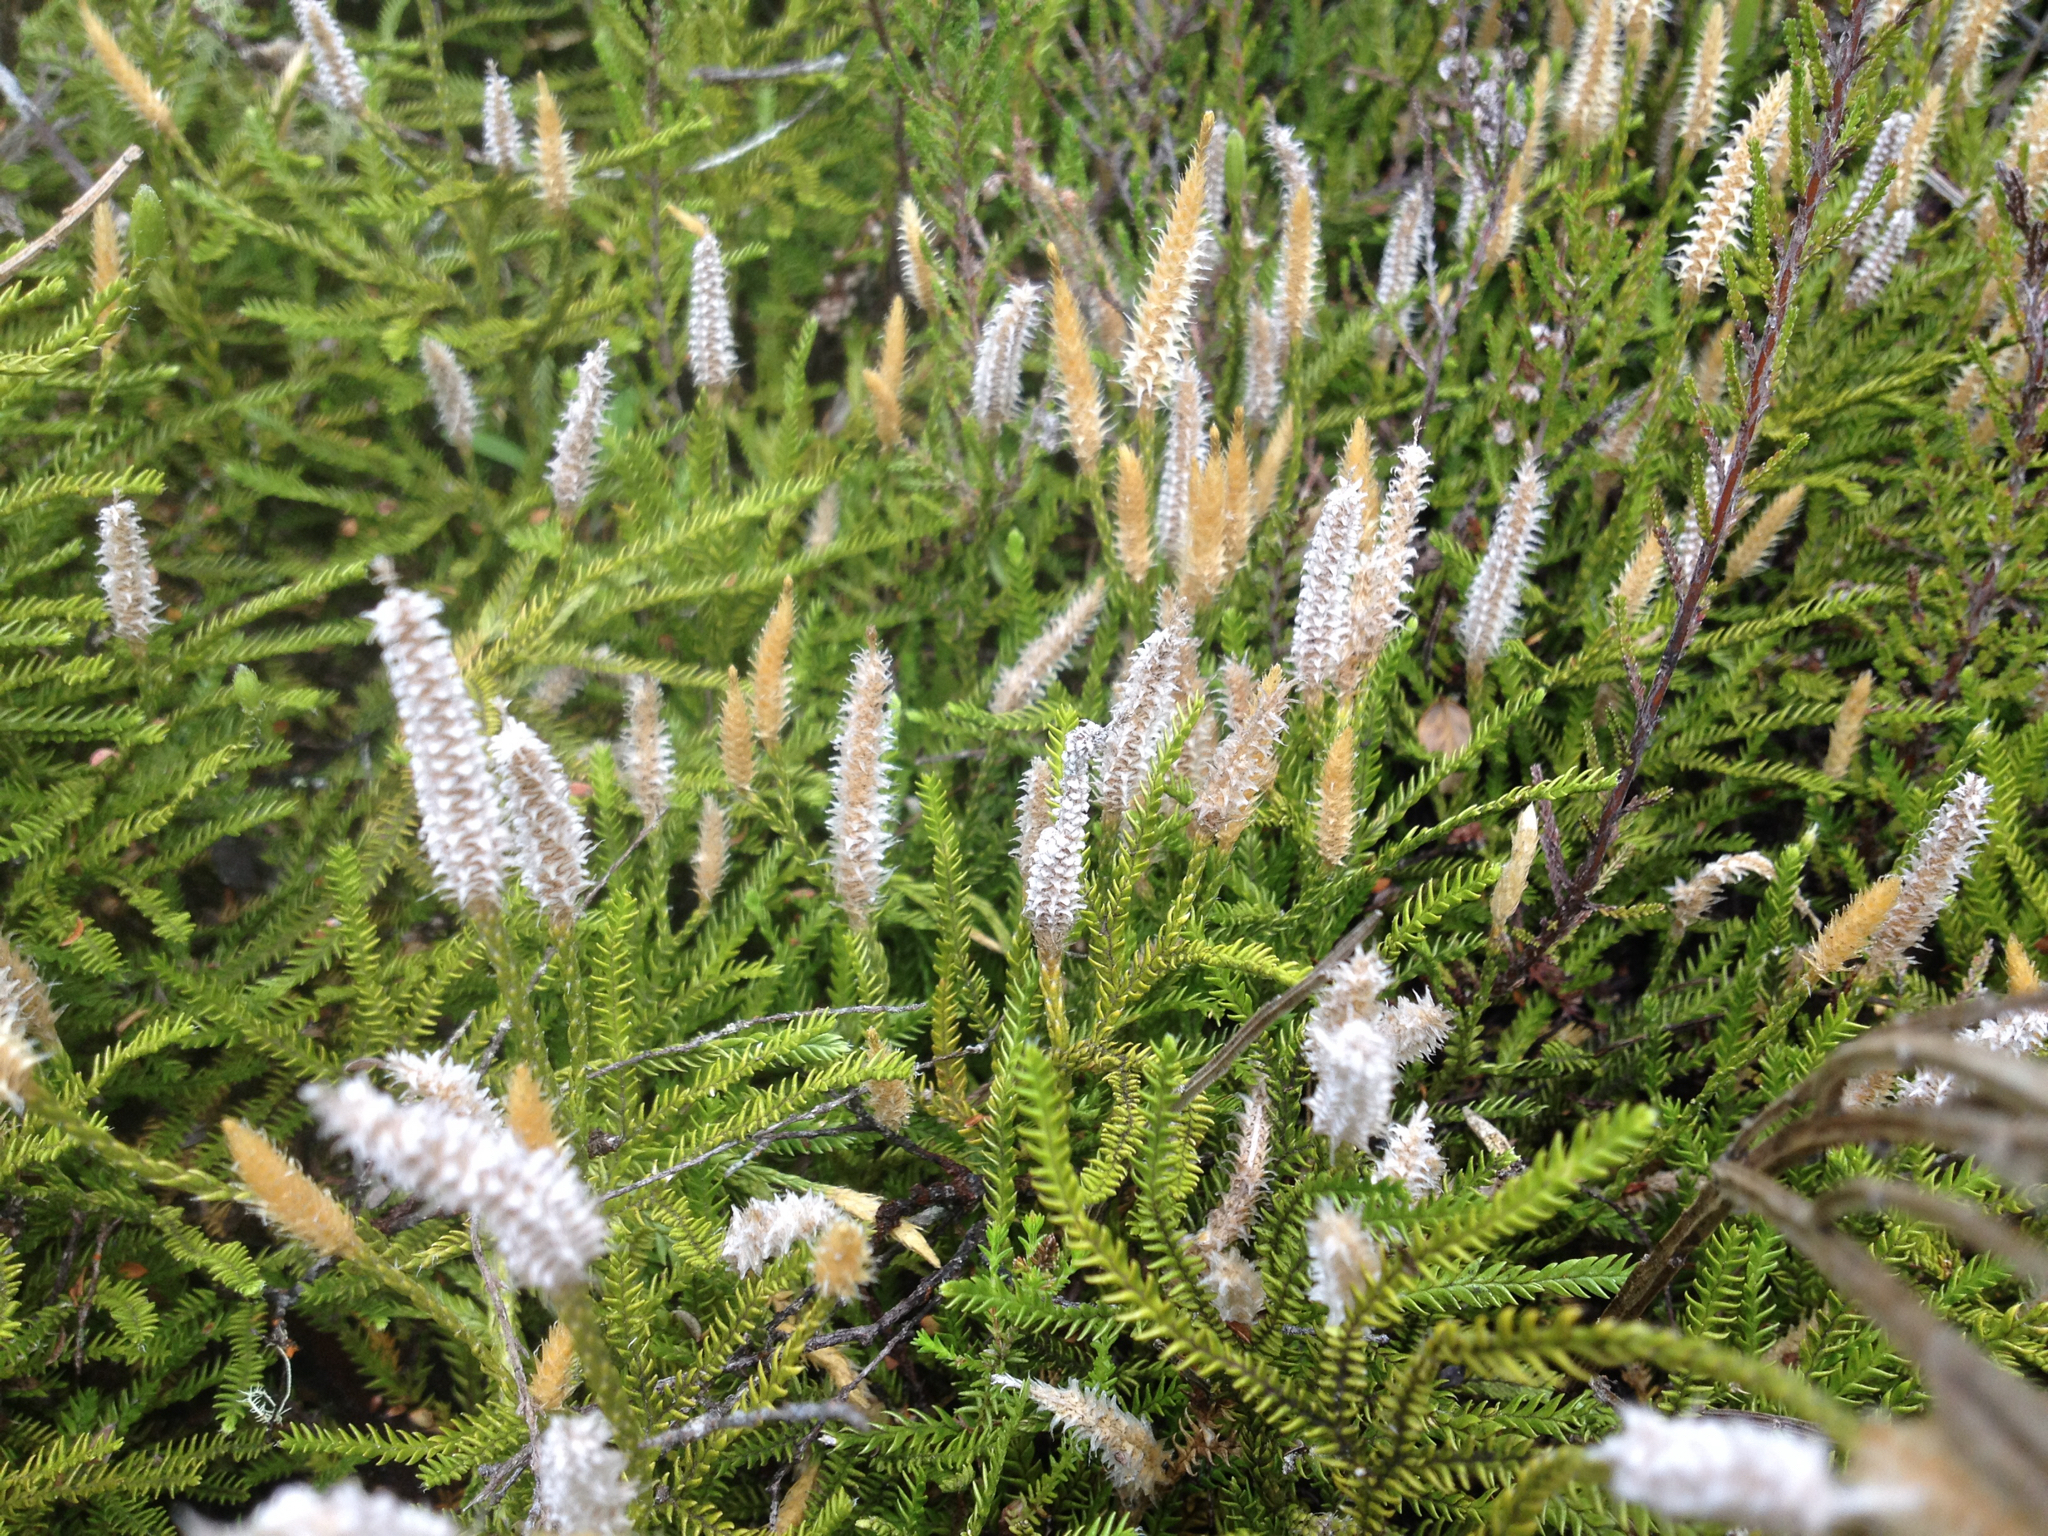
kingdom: Plantae
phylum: Tracheophyta
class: Lycopodiopsida
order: Lycopodiales
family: Lycopodiaceae
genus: Diphasium
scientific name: Diphasium scariosum
